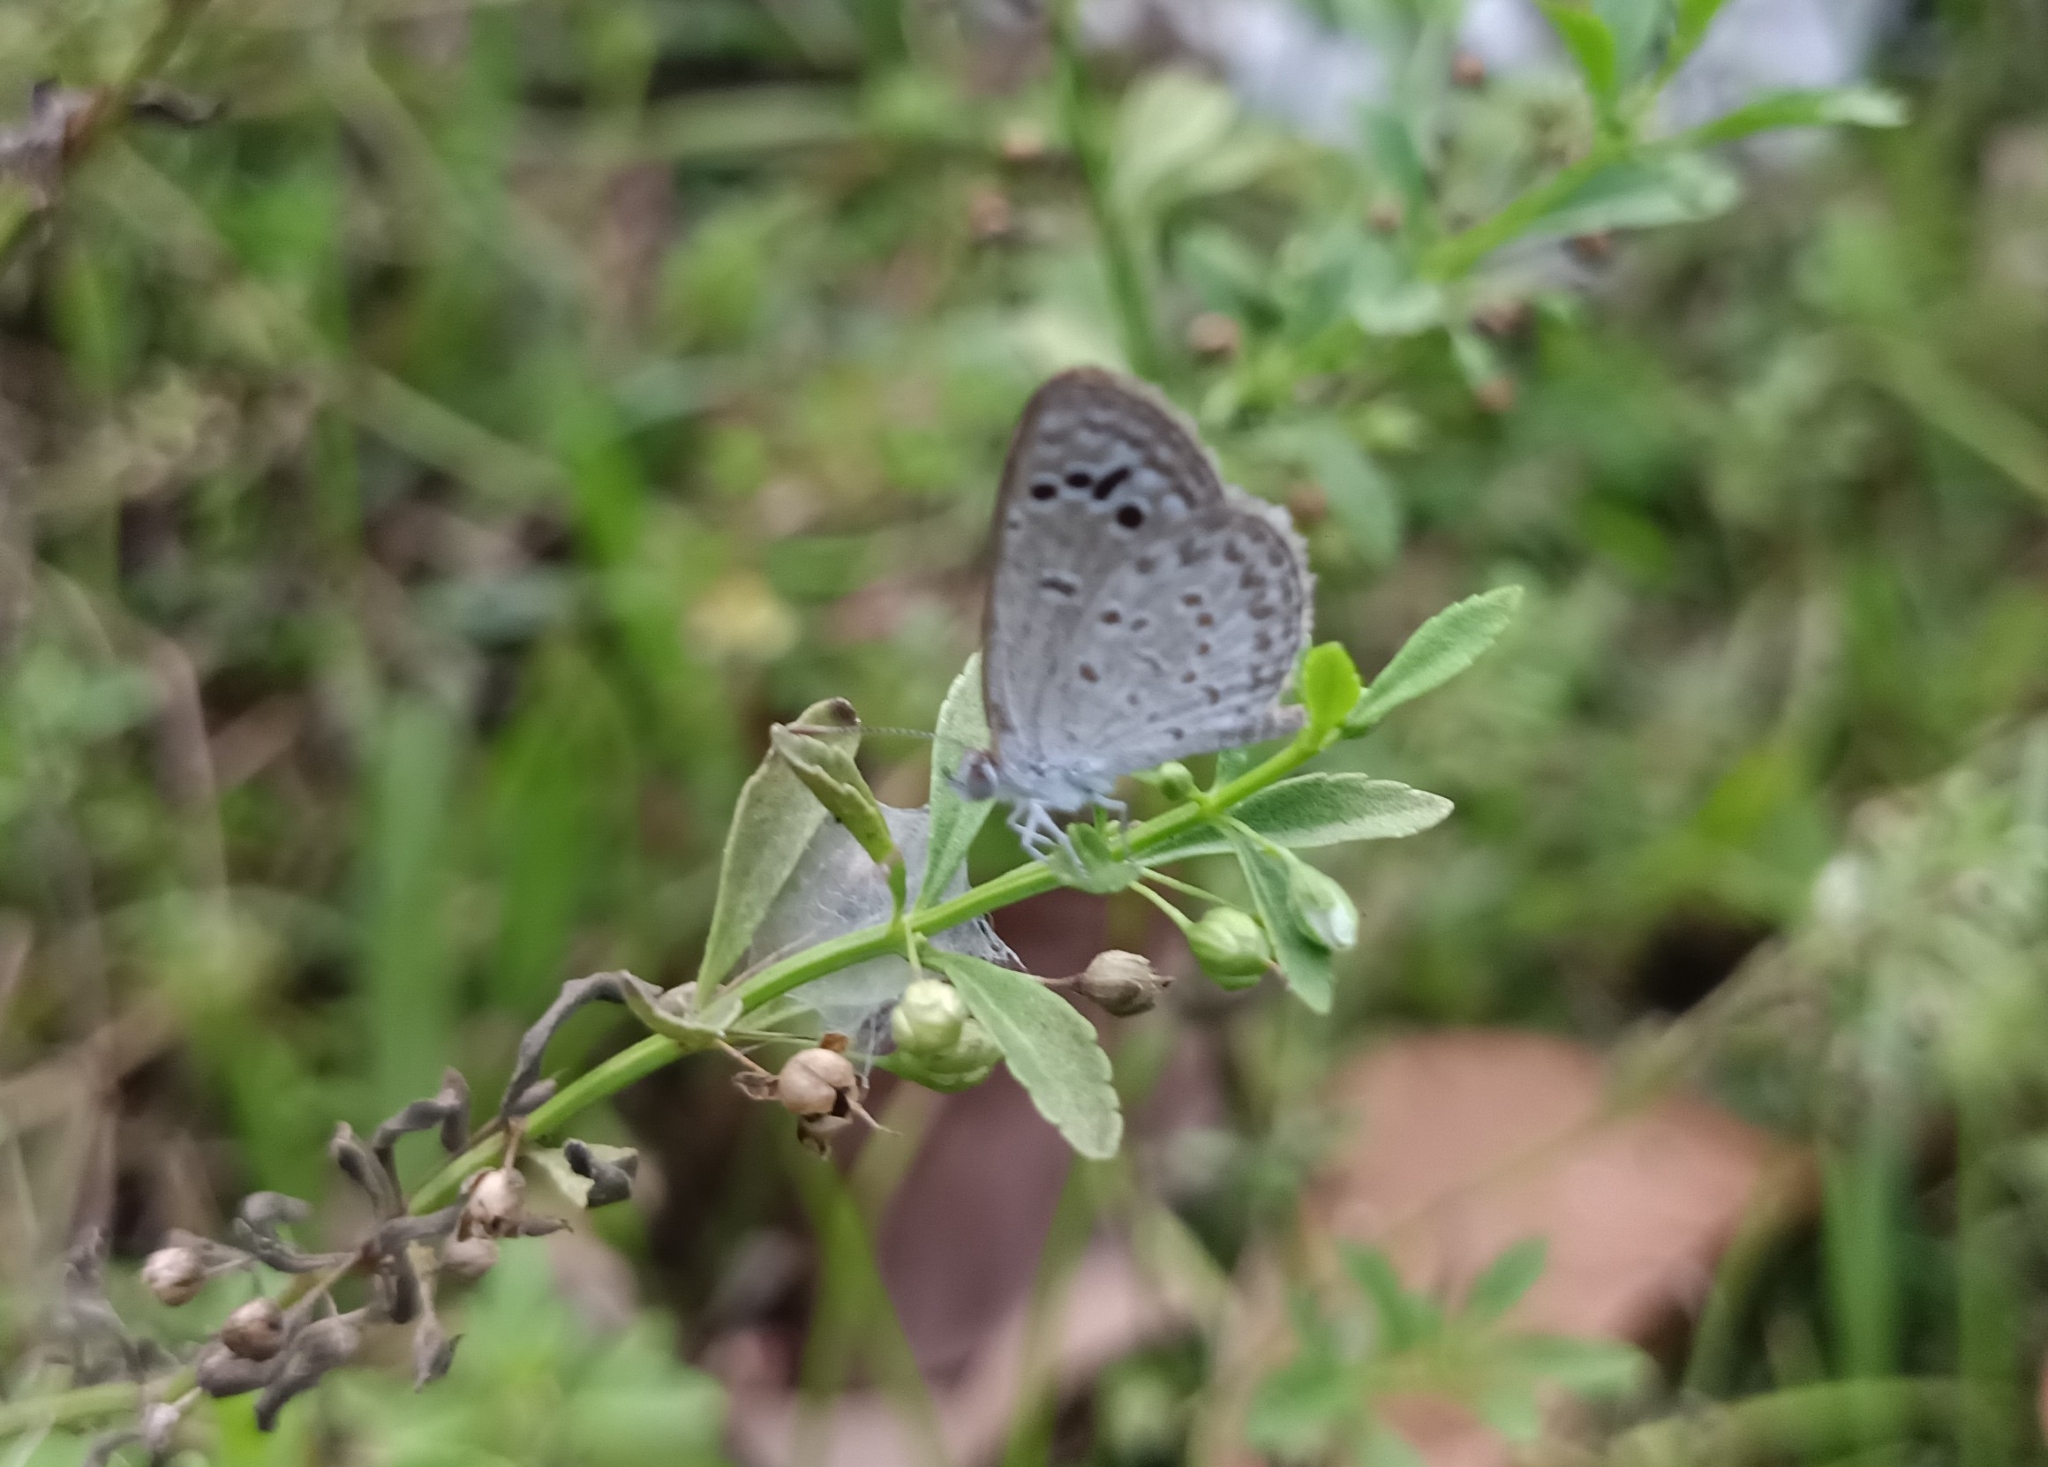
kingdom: Animalia
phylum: Arthropoda
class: Insecta
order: Lepidoptera
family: Lycaenidae
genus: Zizina
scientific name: Zizina otis
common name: Lesser grass blue
